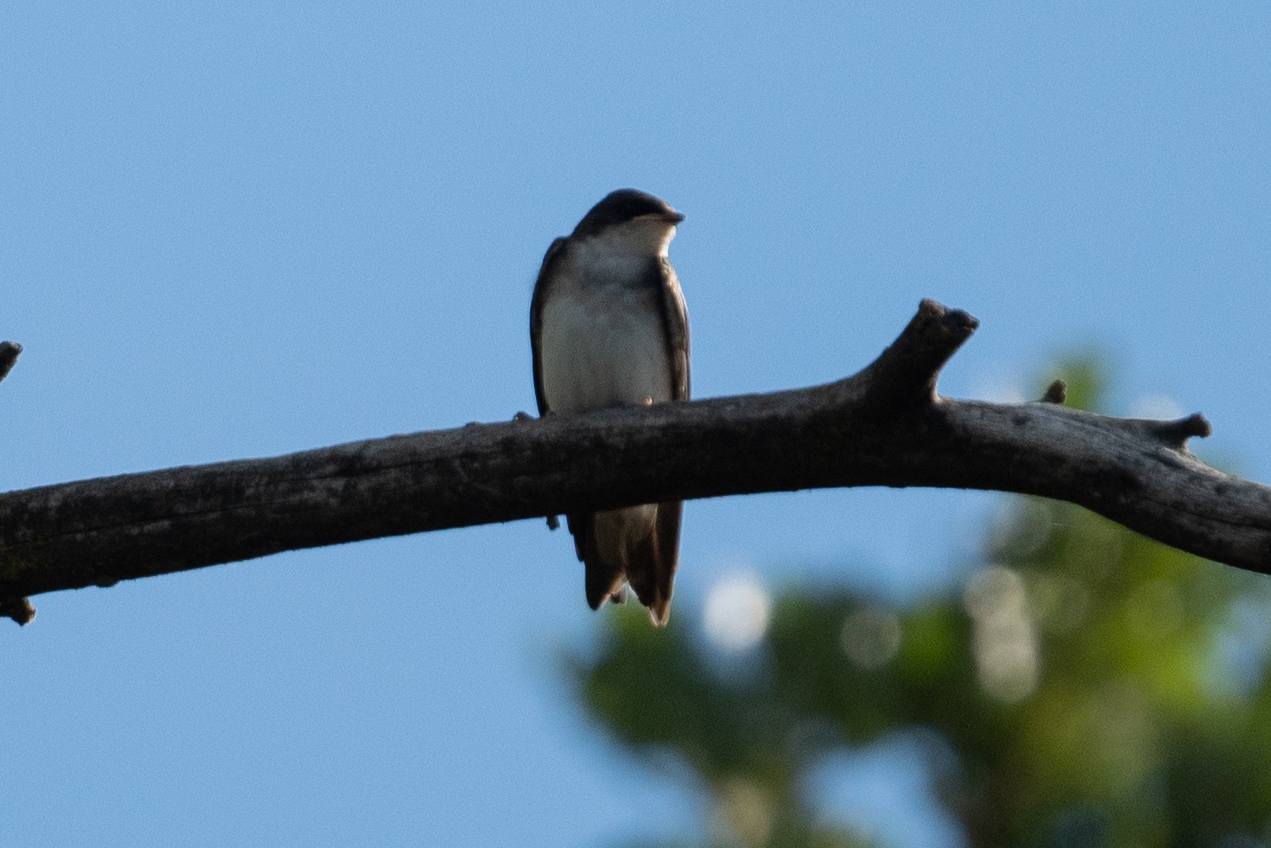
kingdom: Animalia
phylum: Chordata
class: Aves
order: Passeriformes
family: Hirundinidae
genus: Tachycineta
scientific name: Tachycineta bicolor
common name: Tree swallow
